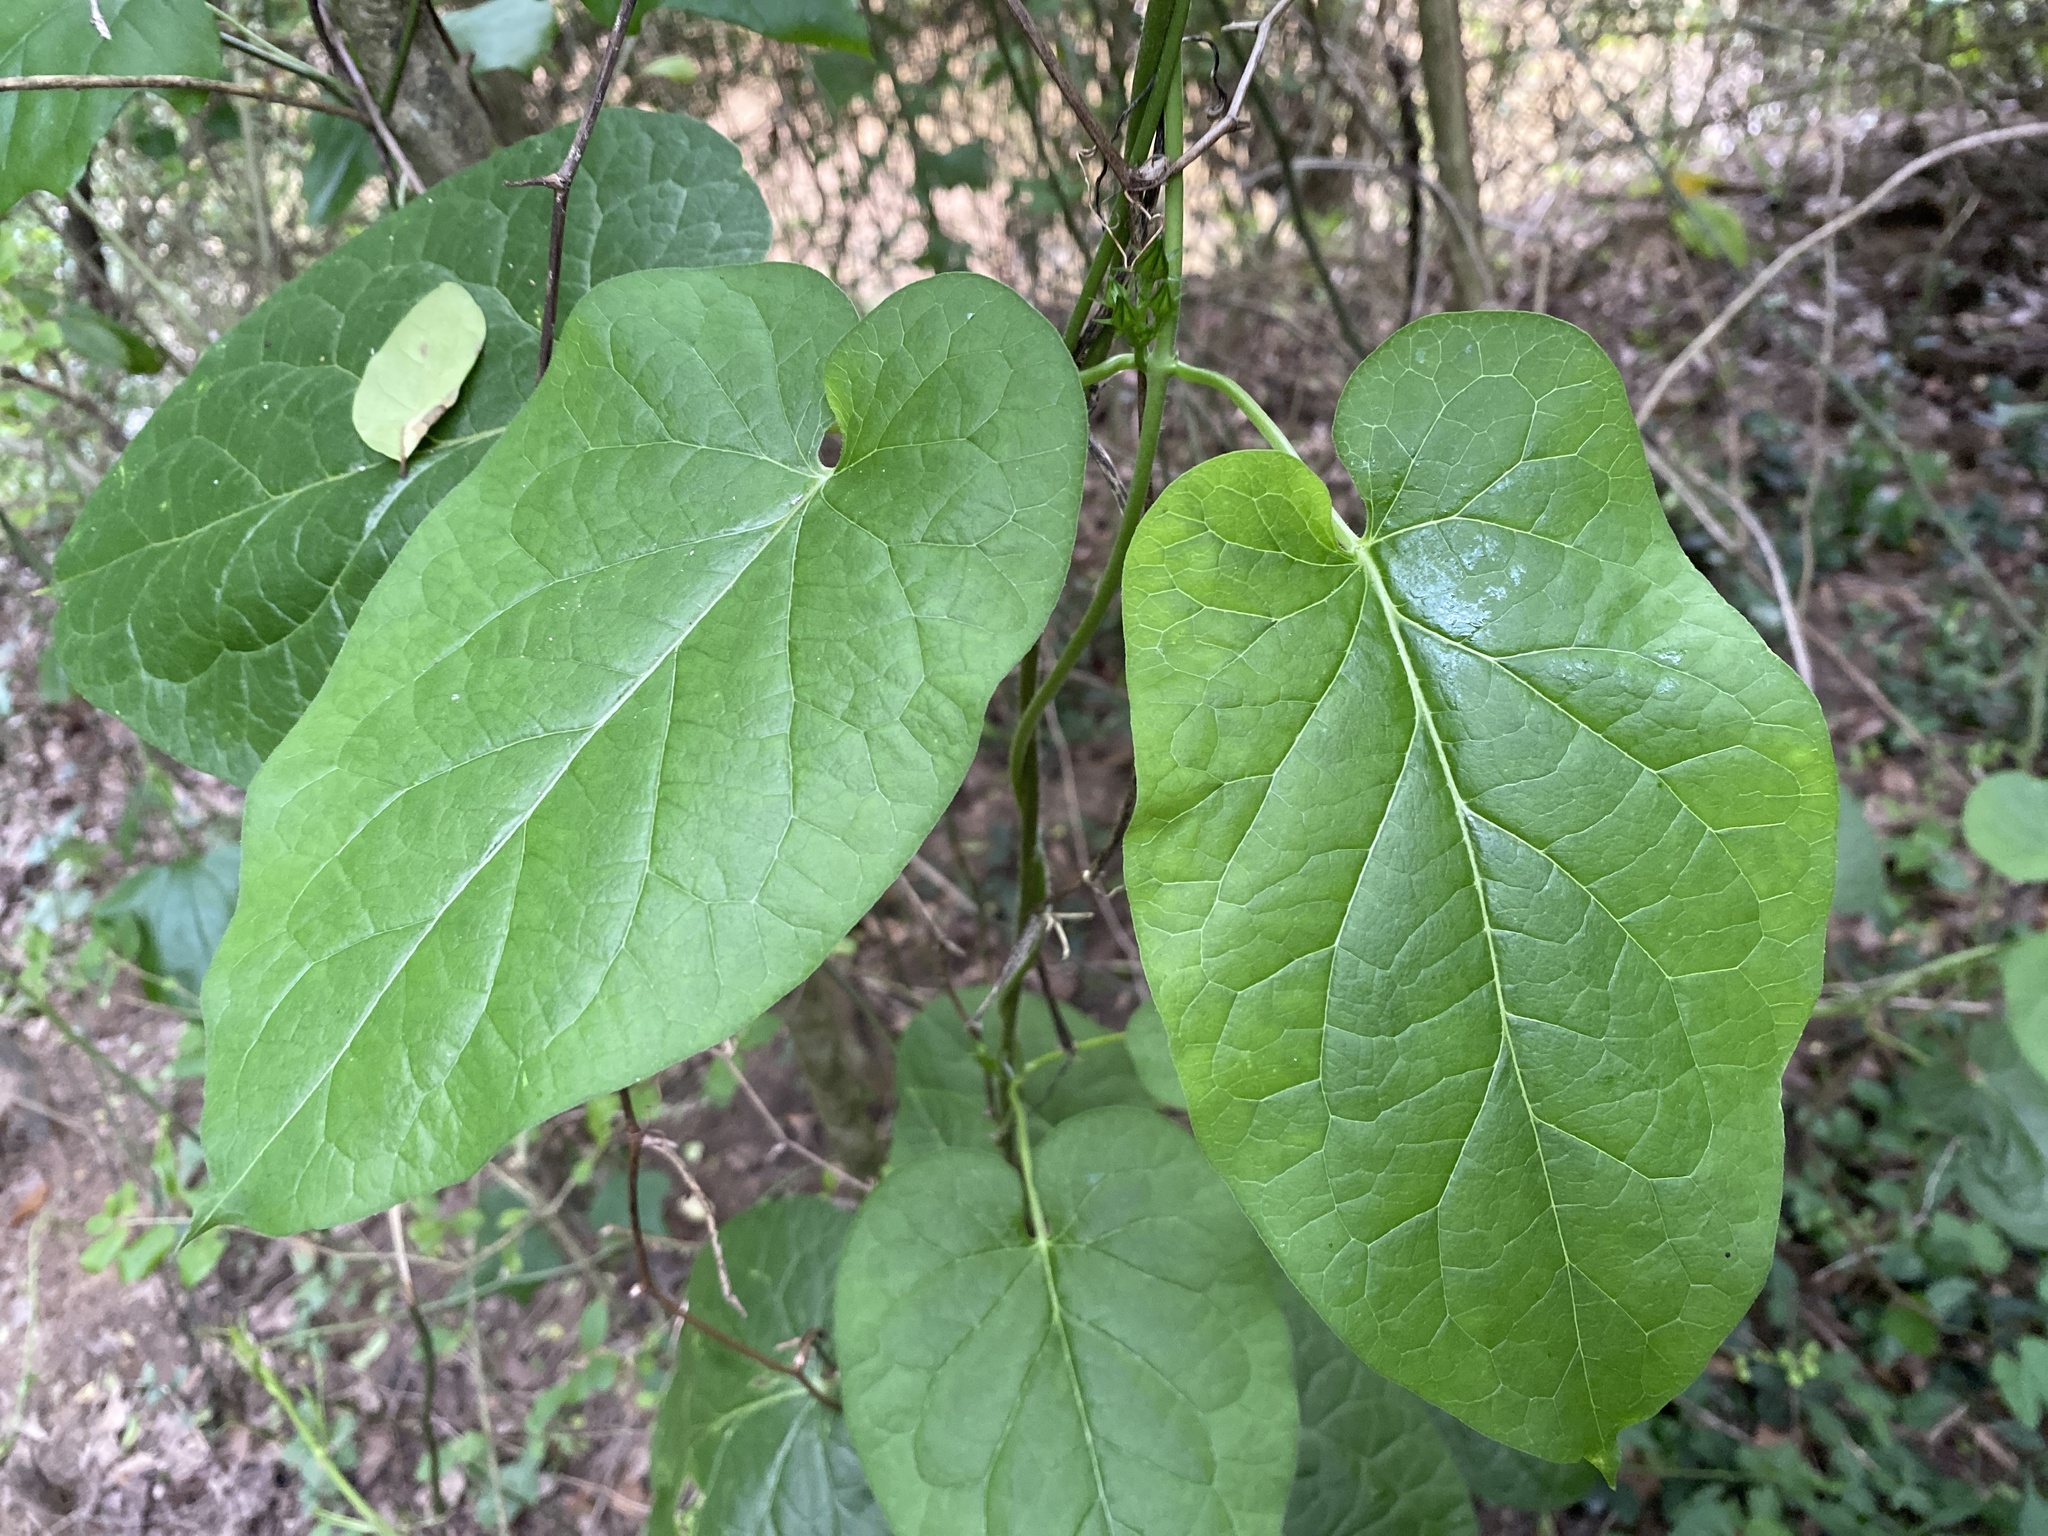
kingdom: Plantae
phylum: Tracheophyta
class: Magnoliopsida
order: Gentianales
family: Apocynaceae
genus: Gonolobus
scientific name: Gonolobus suberosus
